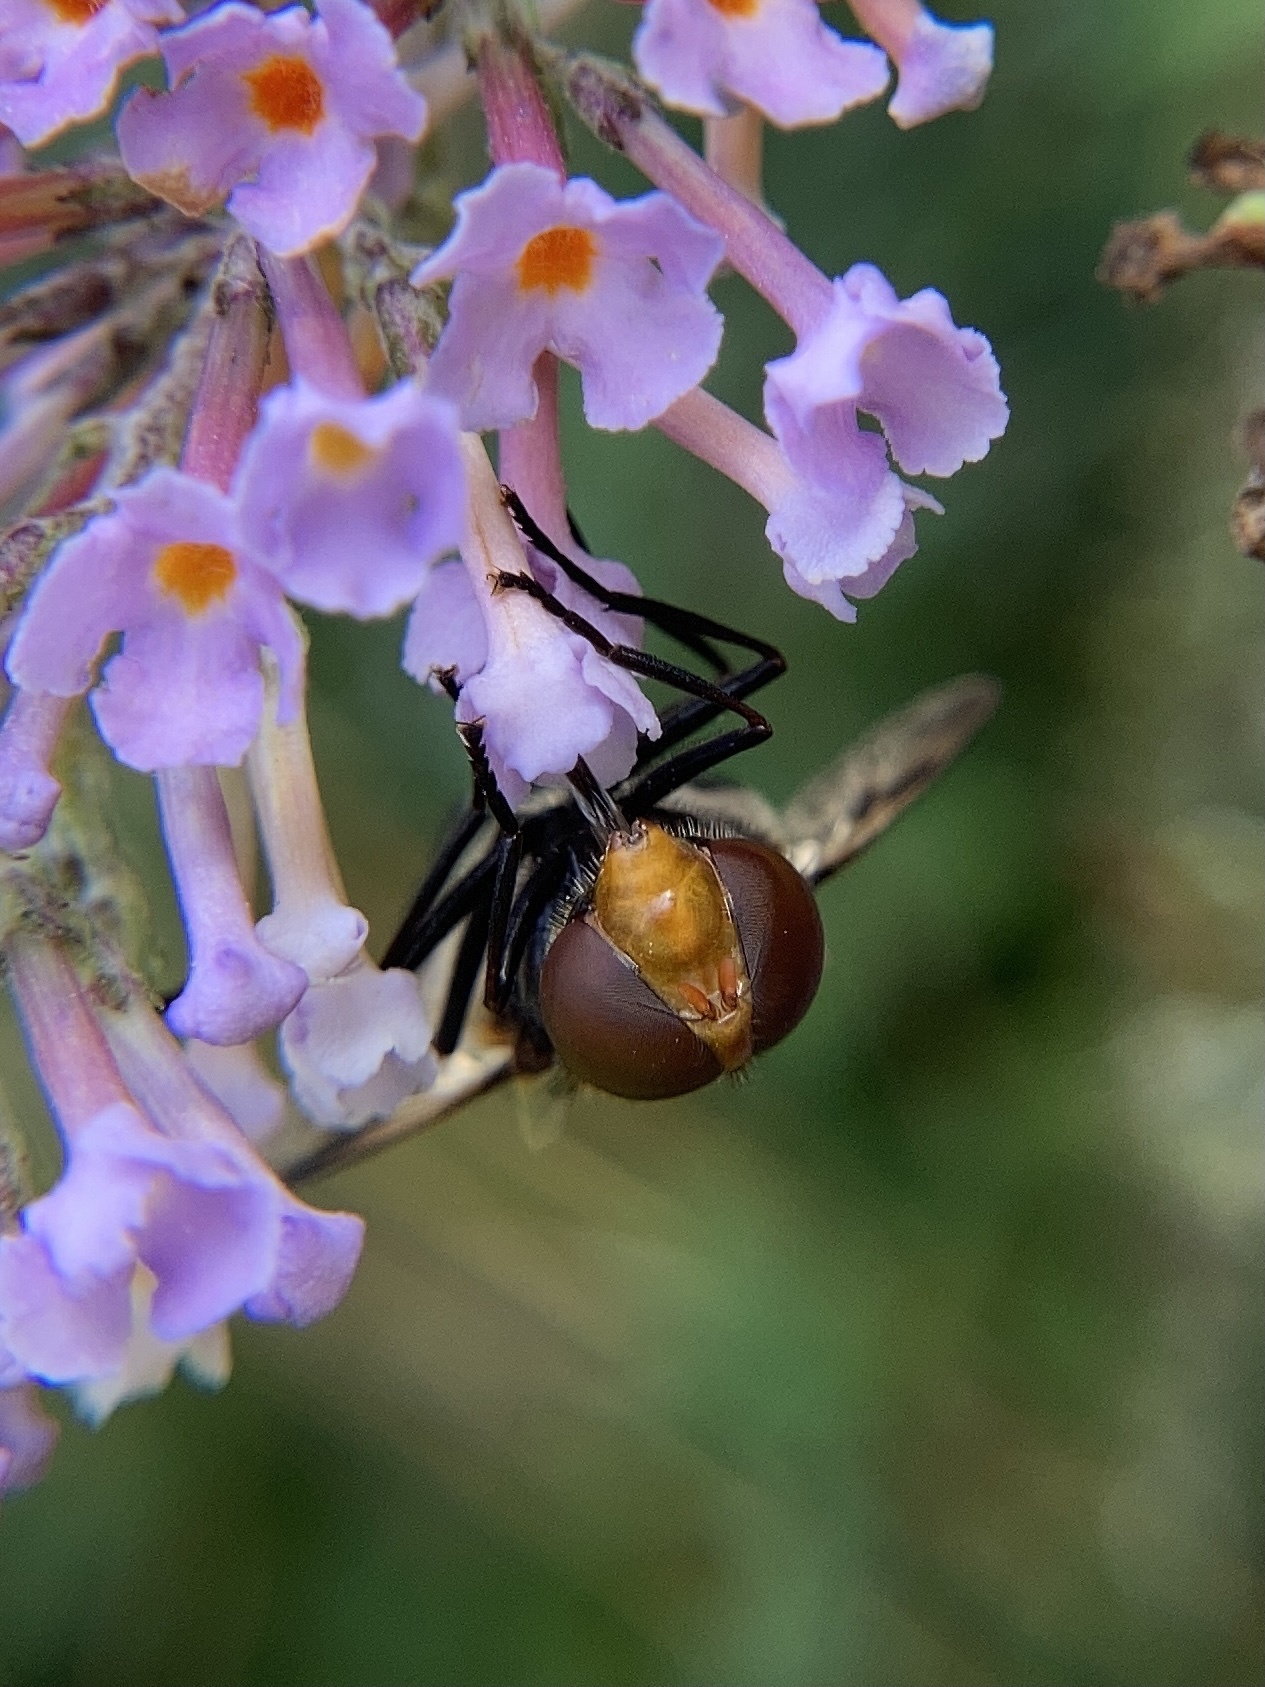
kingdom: Animalia
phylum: Arthropoda
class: Insecta
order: Diptera
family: Syrphidae
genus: Volucella
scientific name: Volucella pellucens
